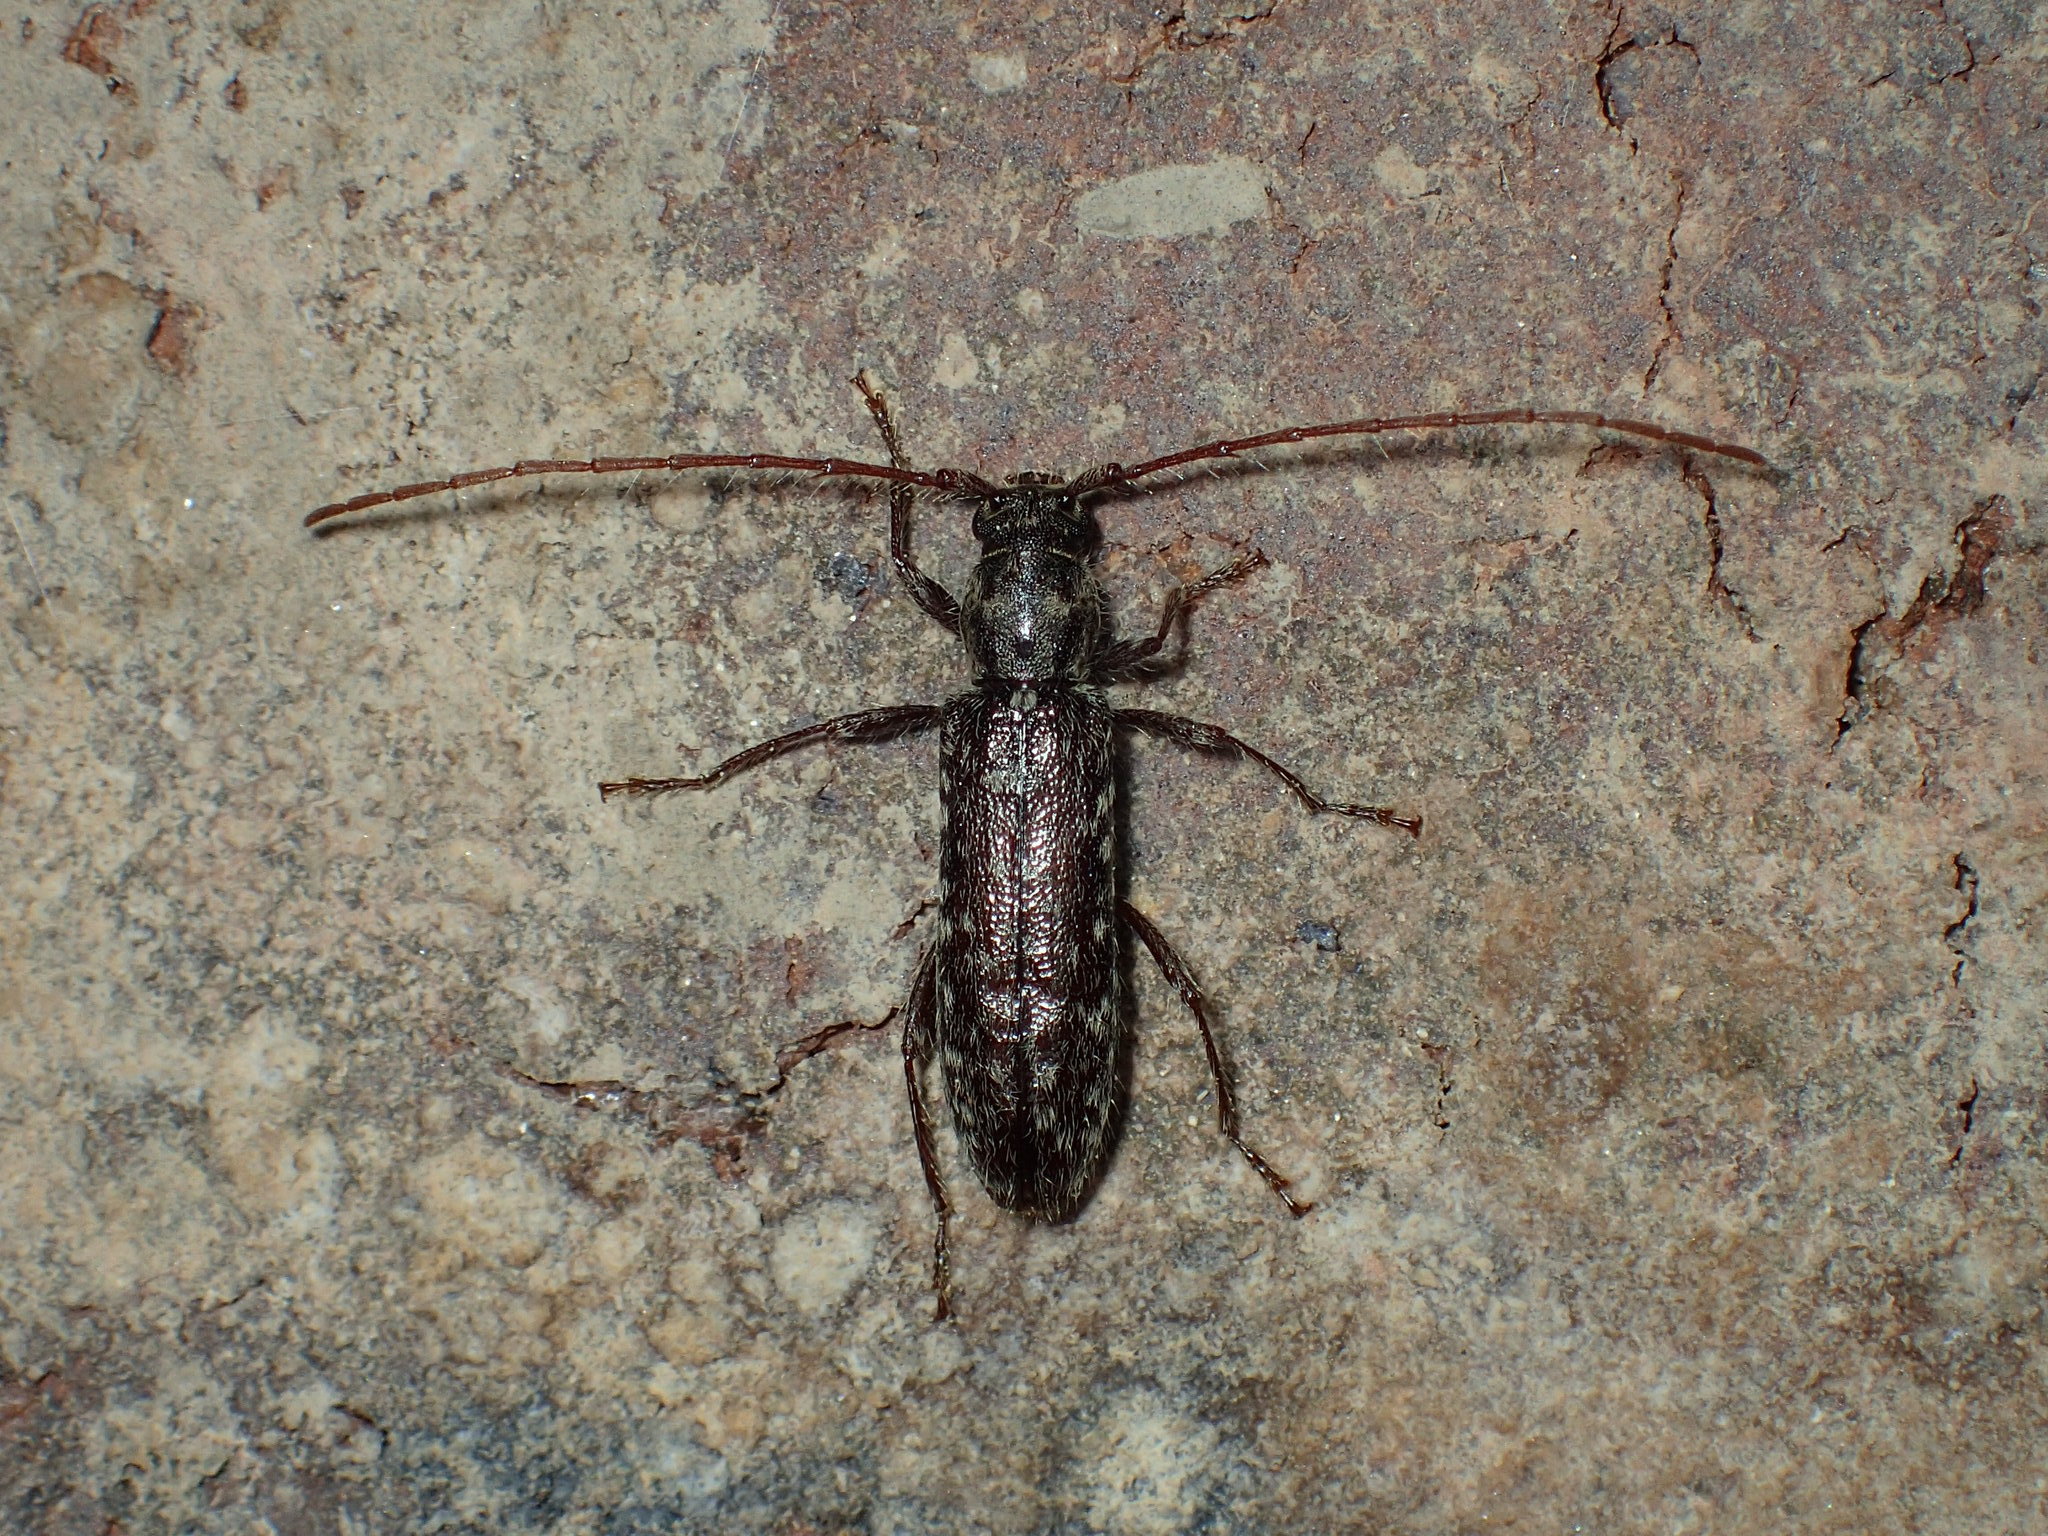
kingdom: Animalia
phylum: Arthropoda
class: Insecta
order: Coleoptera
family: Cerambycidae
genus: Anelaphus
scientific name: Anelaphus pumilus
